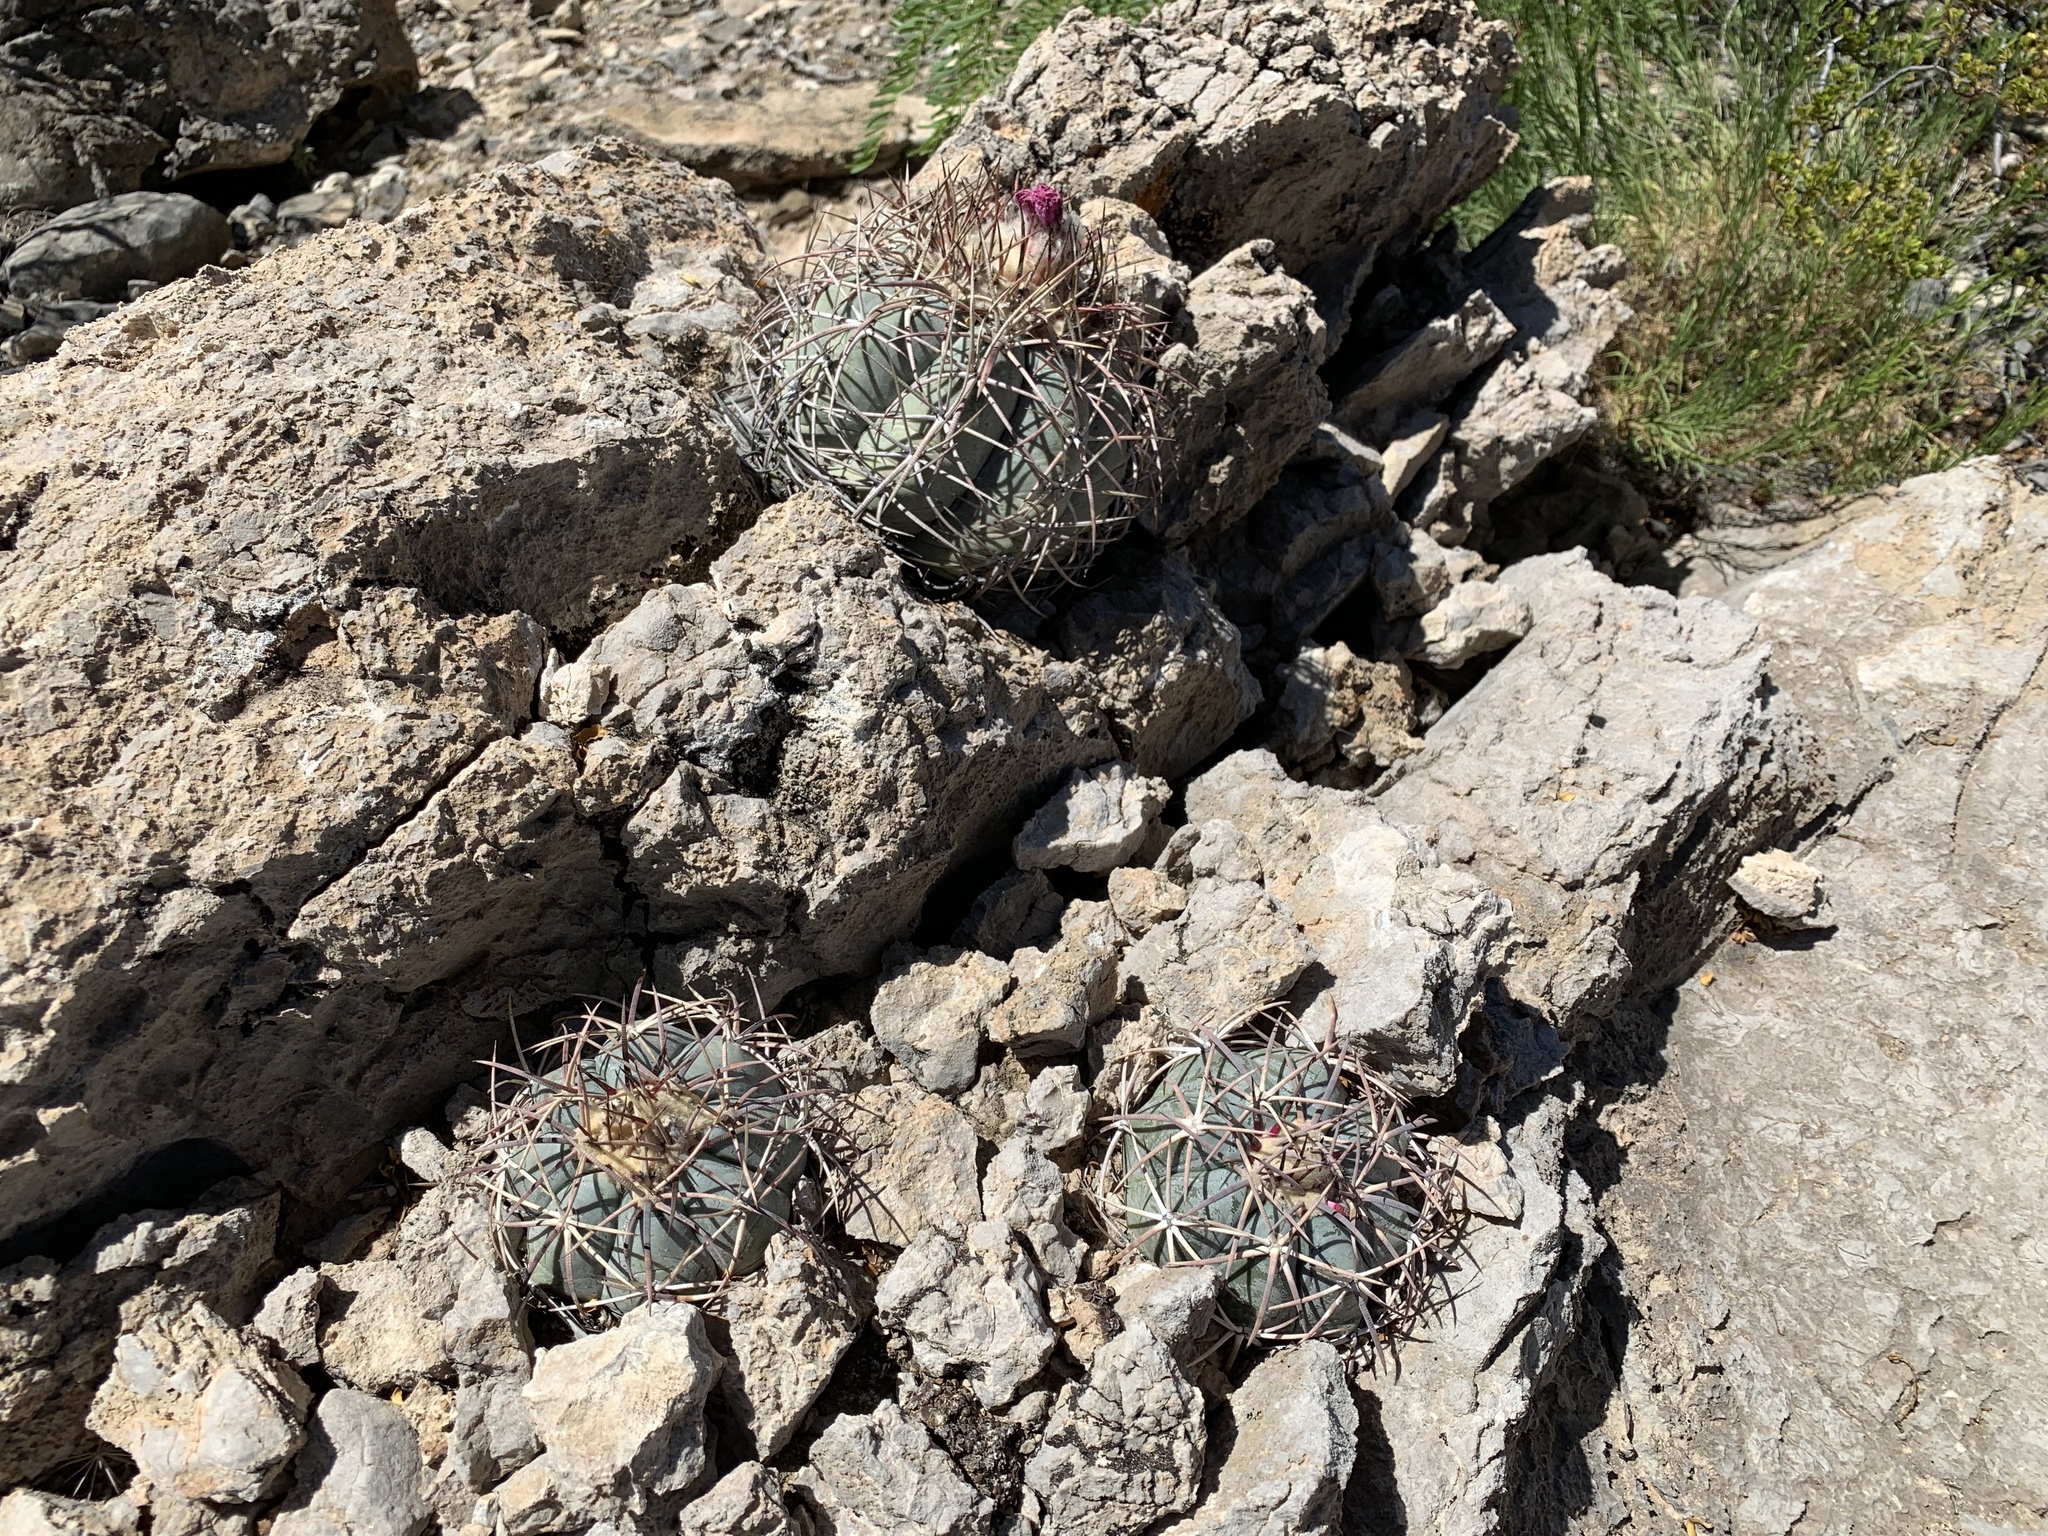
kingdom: Plantae
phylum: Tracheophyta
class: Magnoliopsida
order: Caryophyllales
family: Cactaceae
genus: Echinocactus
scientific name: Echinocactus horizonthalonius
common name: Devilshead
